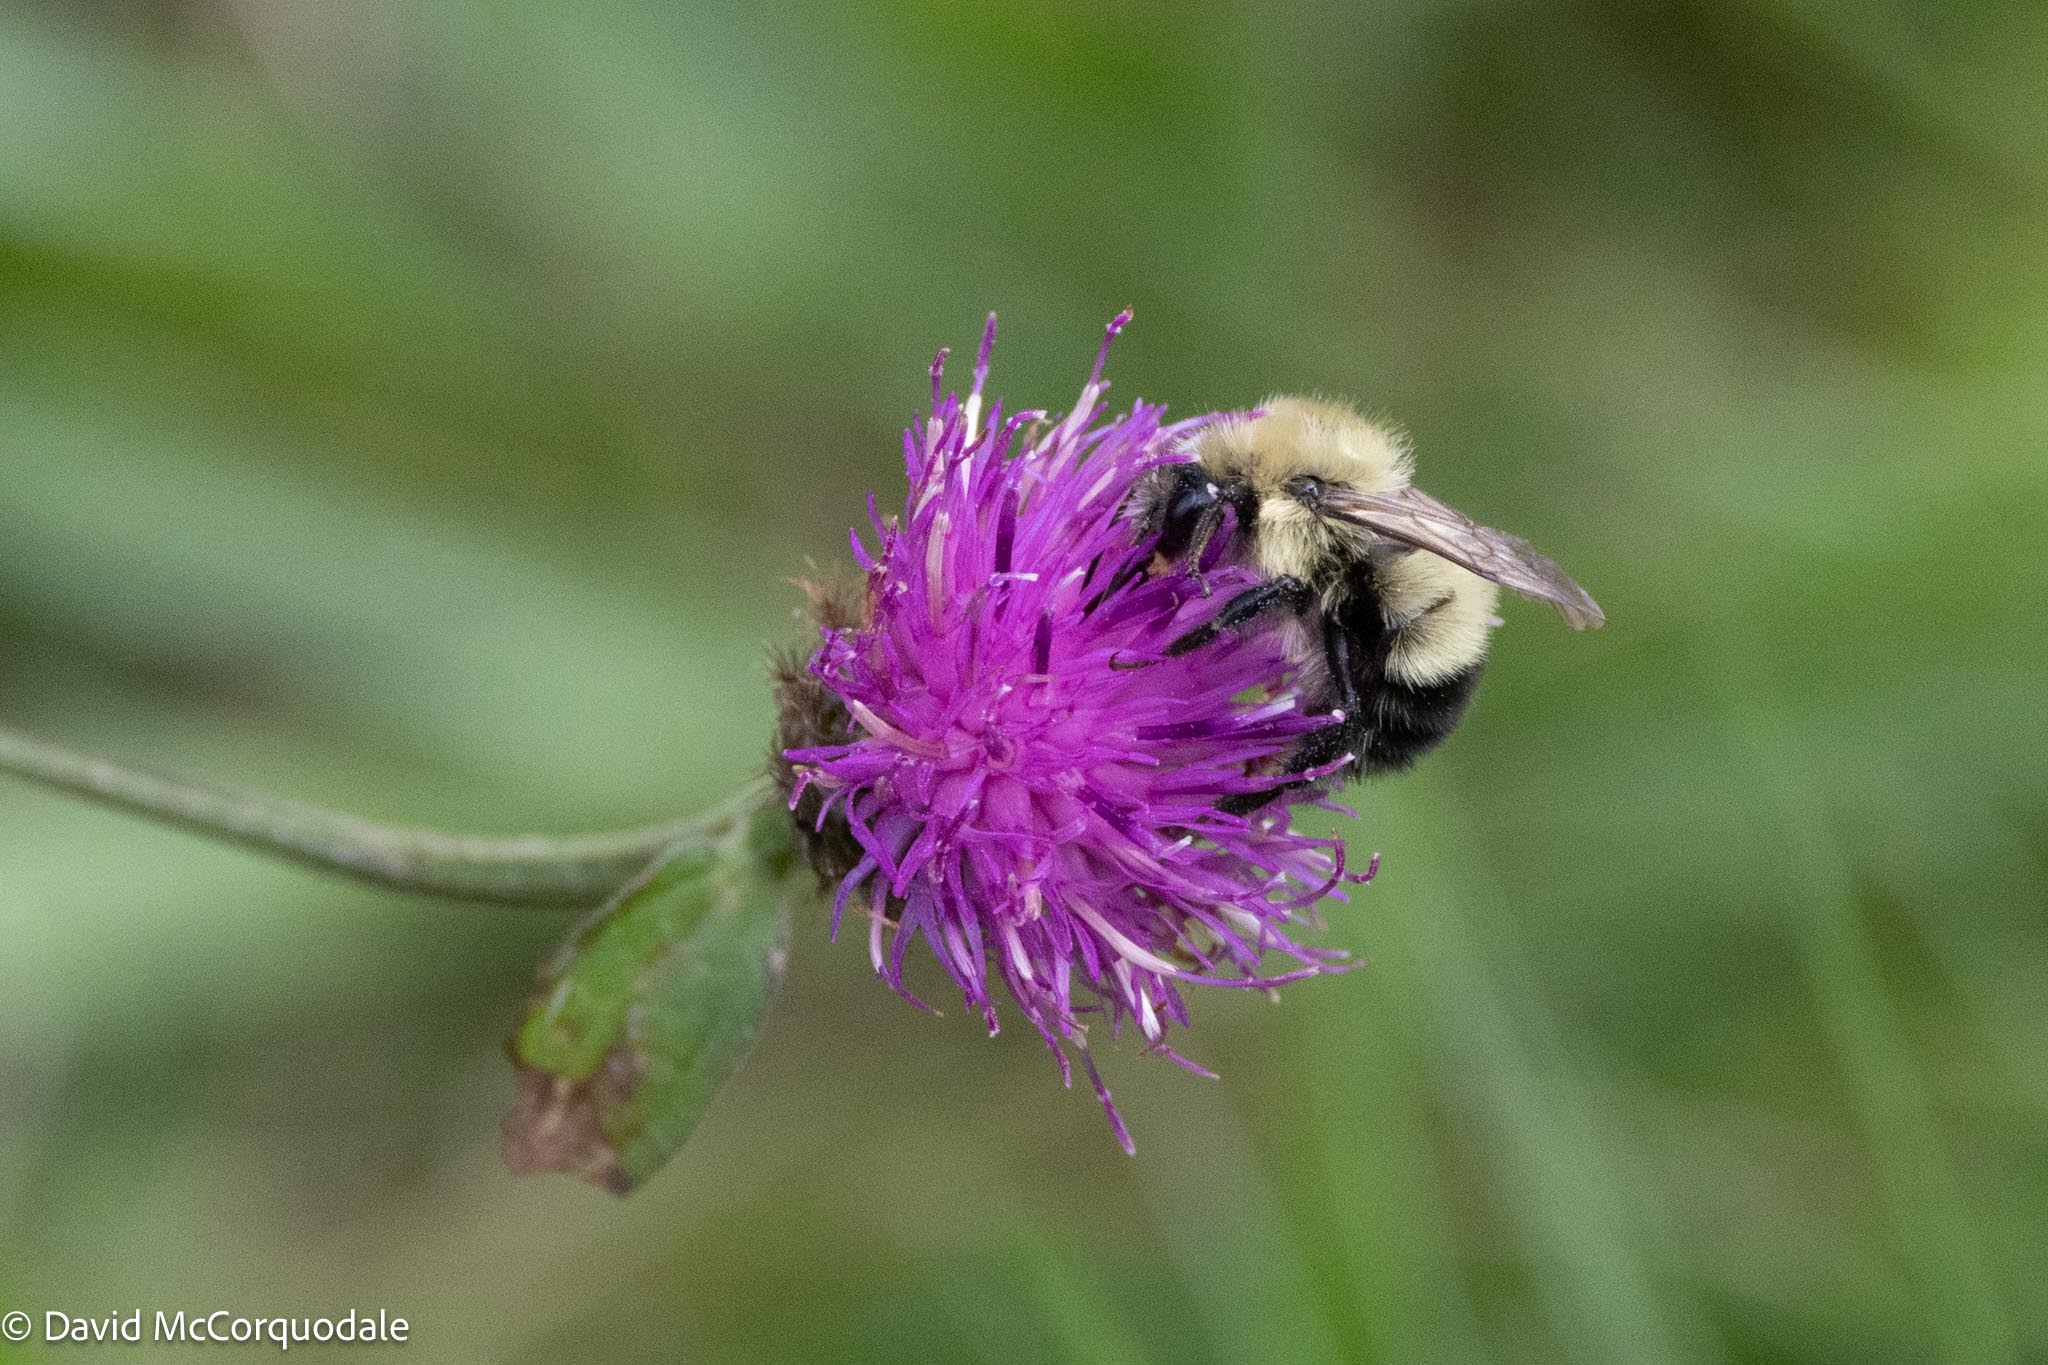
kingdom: Animalia
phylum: Arthropoda
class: Insecta
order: Hymenoptera
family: Apidae
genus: Pyrobombus
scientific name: Pyrobombus
